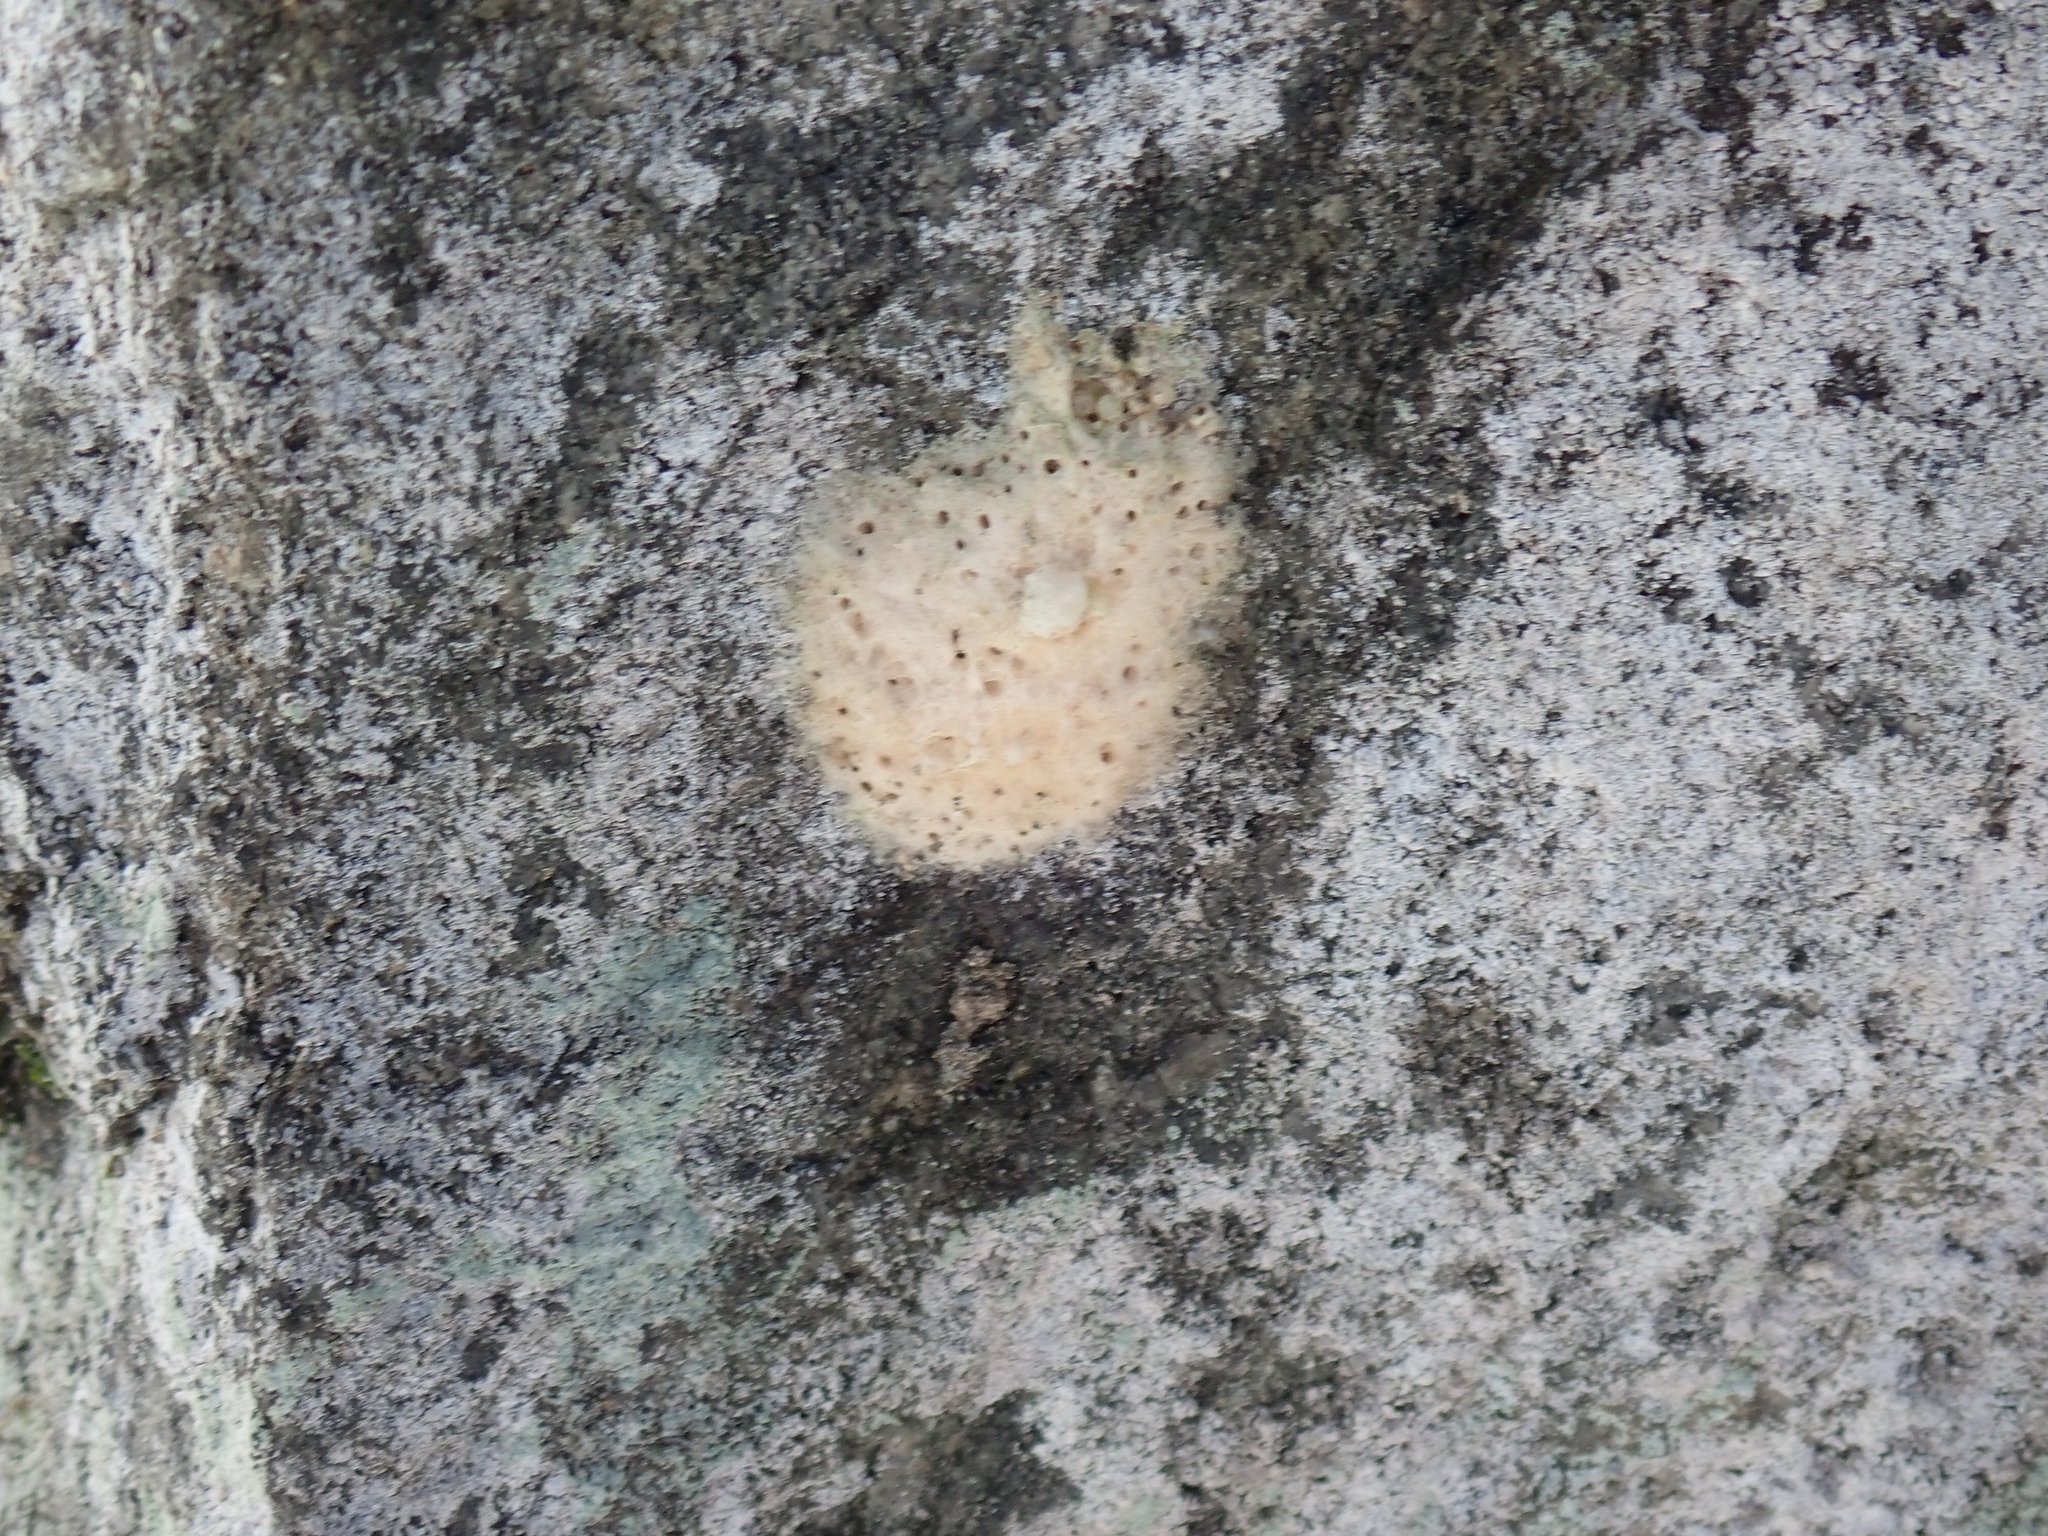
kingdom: Animalia
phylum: Arthropoda
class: Insecta
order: Lepidoptera
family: Erebidae
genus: Lymantria
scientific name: Lymantria dispar
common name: Gypsy moth
